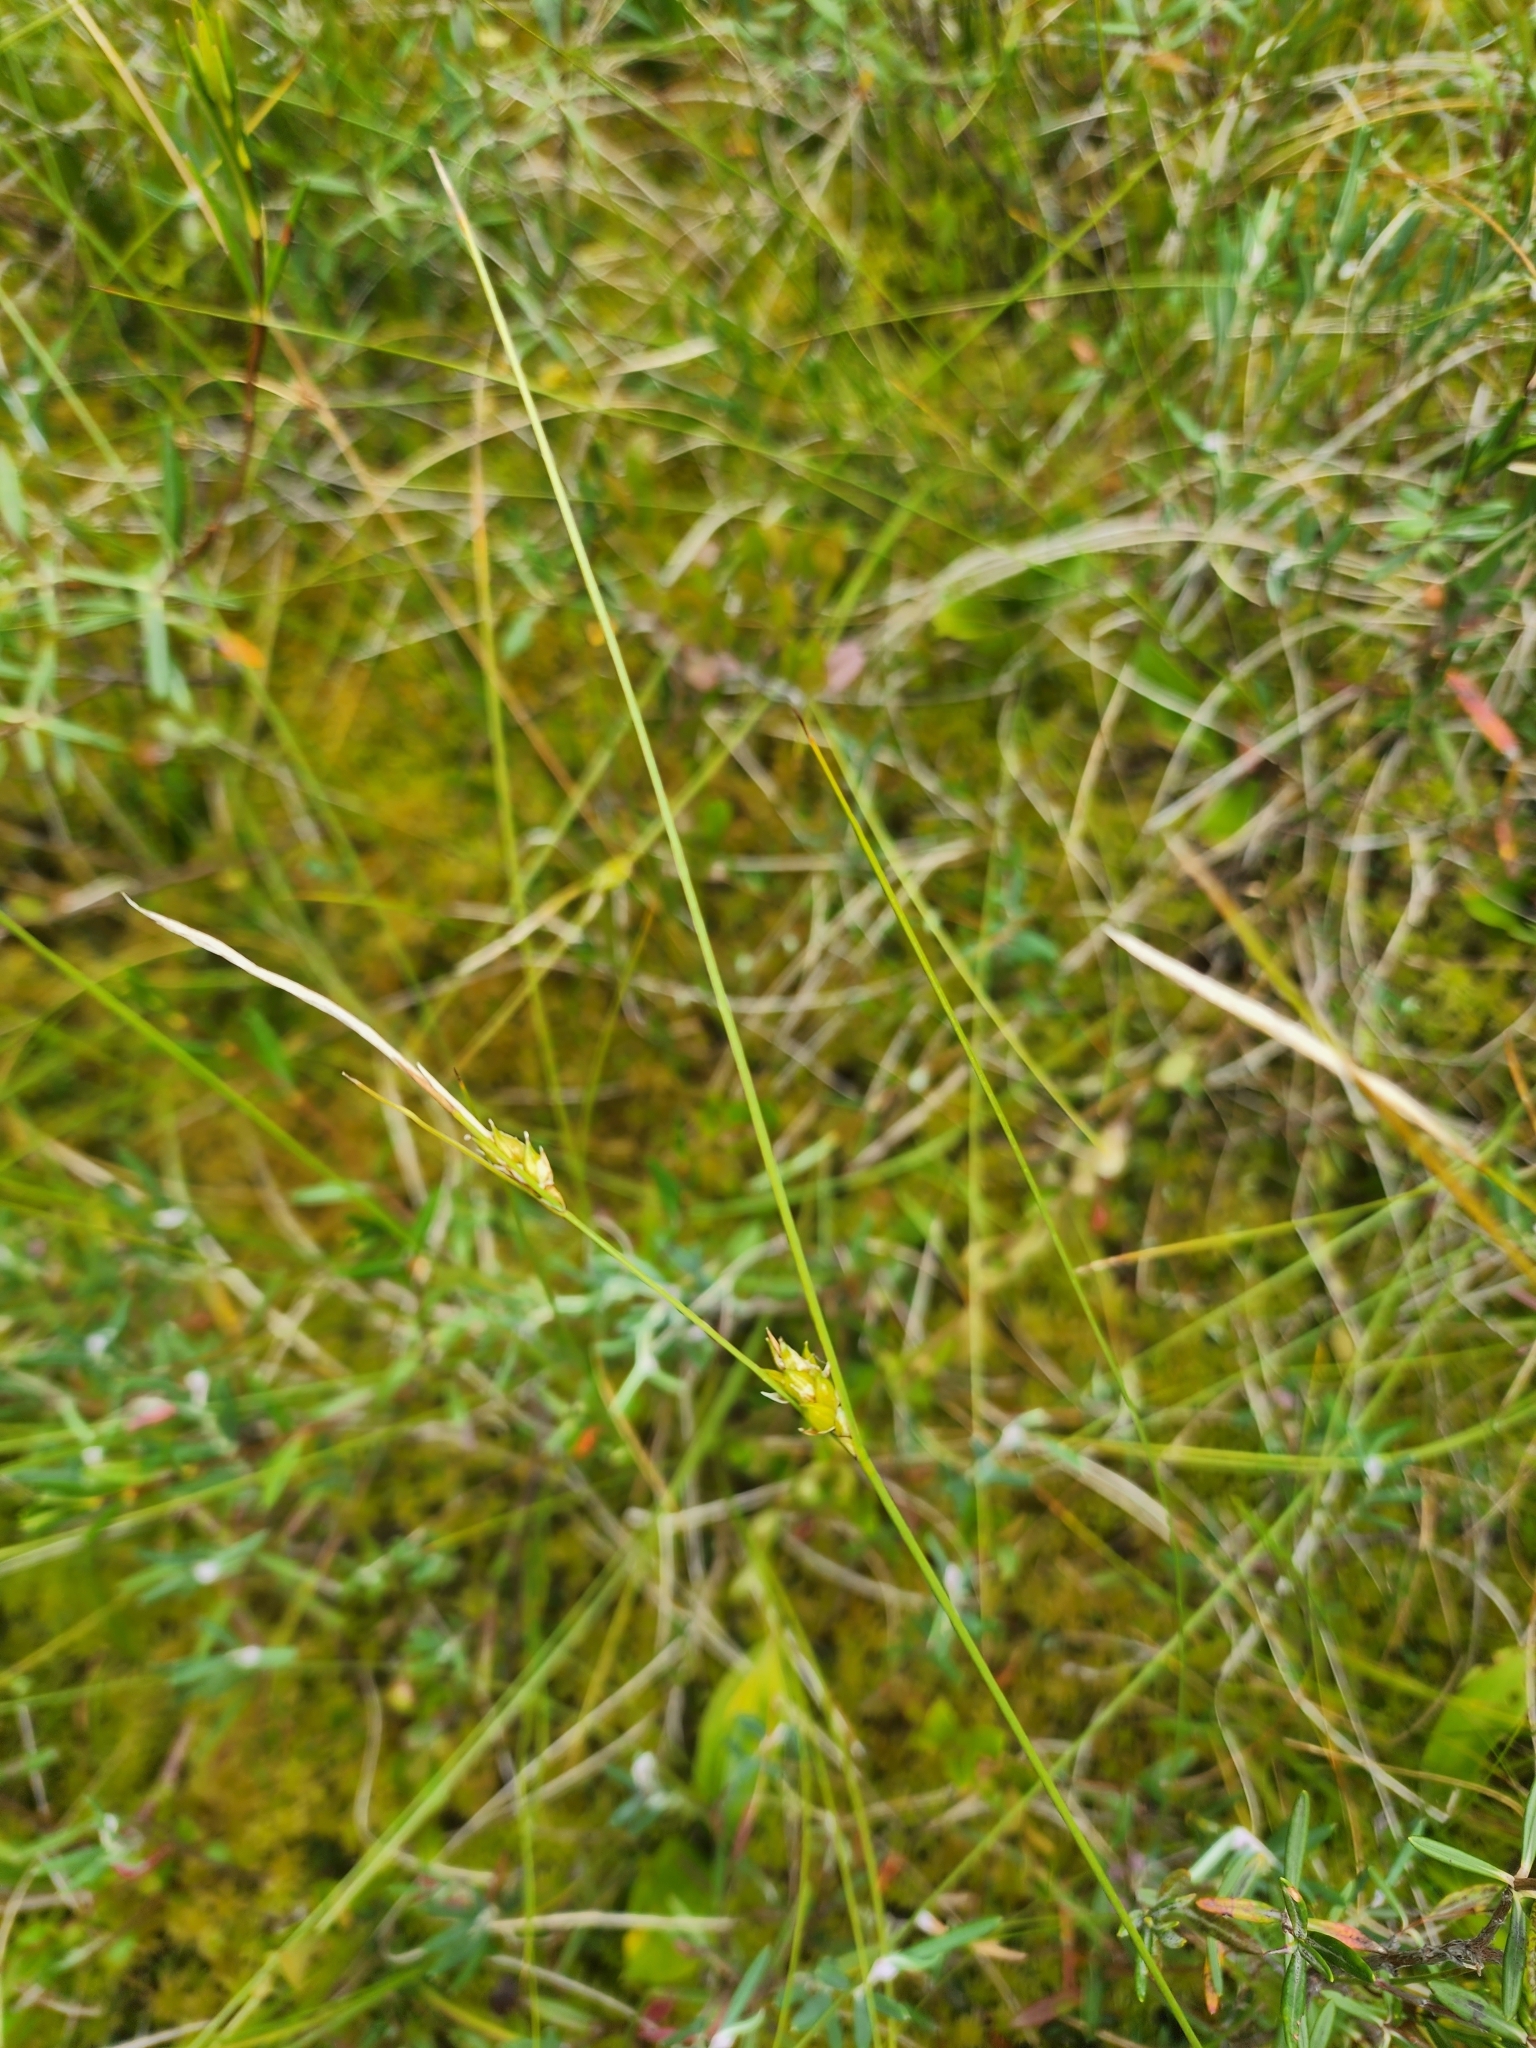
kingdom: Plantae
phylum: Tracheophyta
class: Liliopsida
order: Poales
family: Cyperaceae
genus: Carex
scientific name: Carex oligosperma
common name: Few-seed sedge
